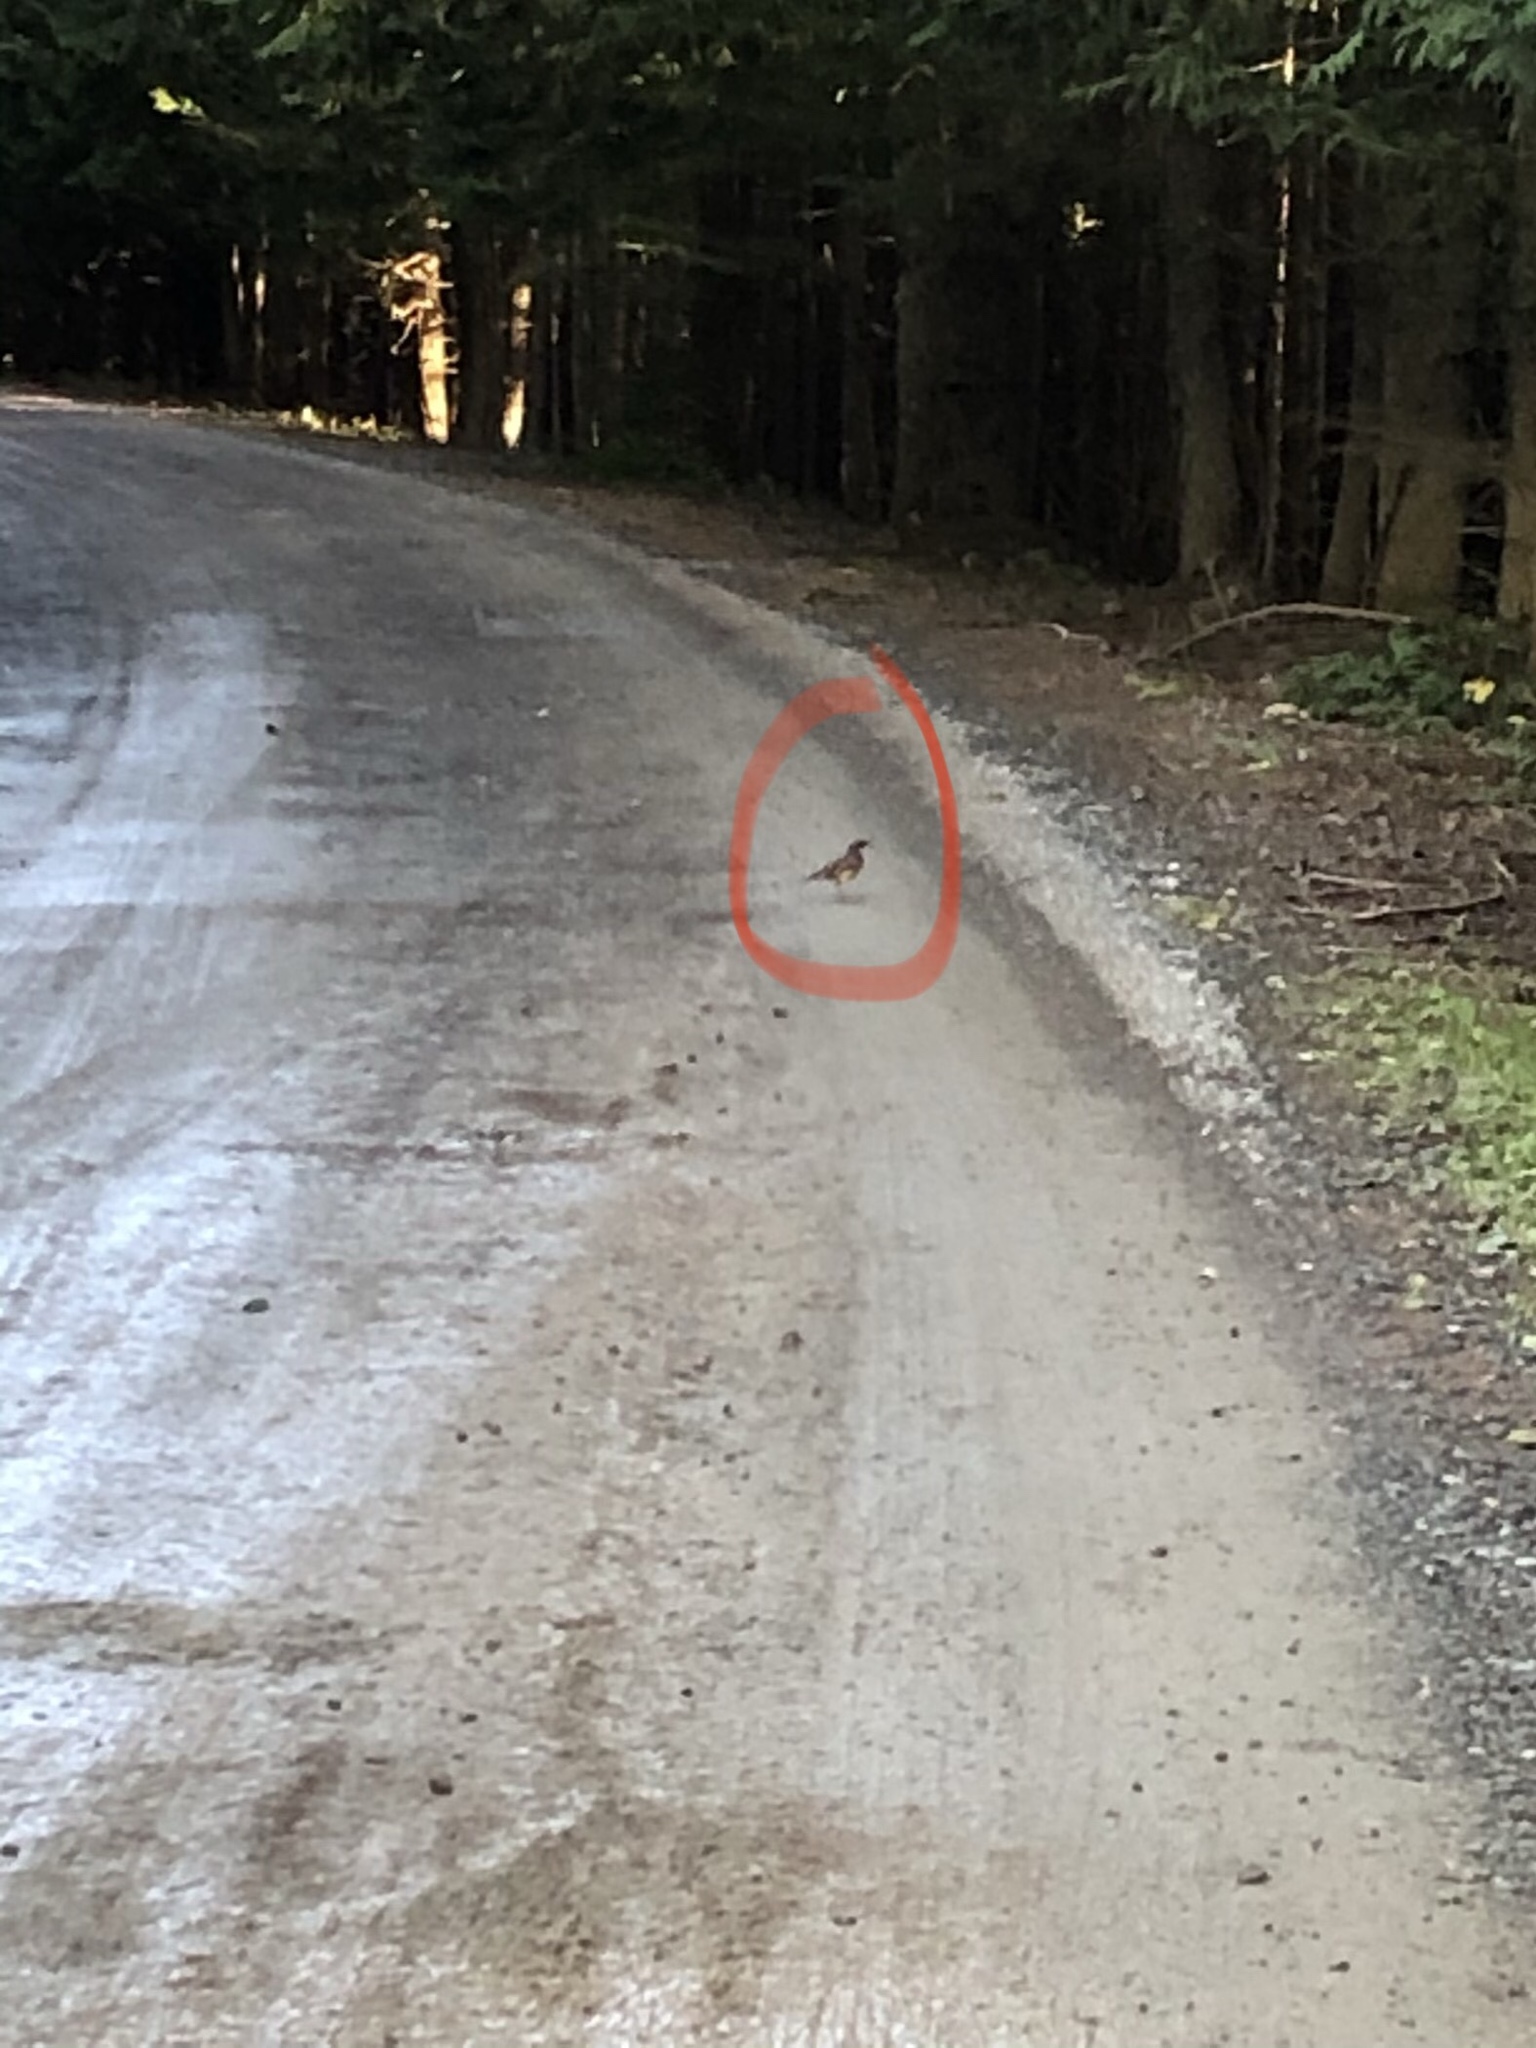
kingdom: Animalia
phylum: Chordata
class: Aves
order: Passeriformes
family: Turdidae
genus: Ixoreus
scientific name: Ixoreus naevius
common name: Varied thrush
